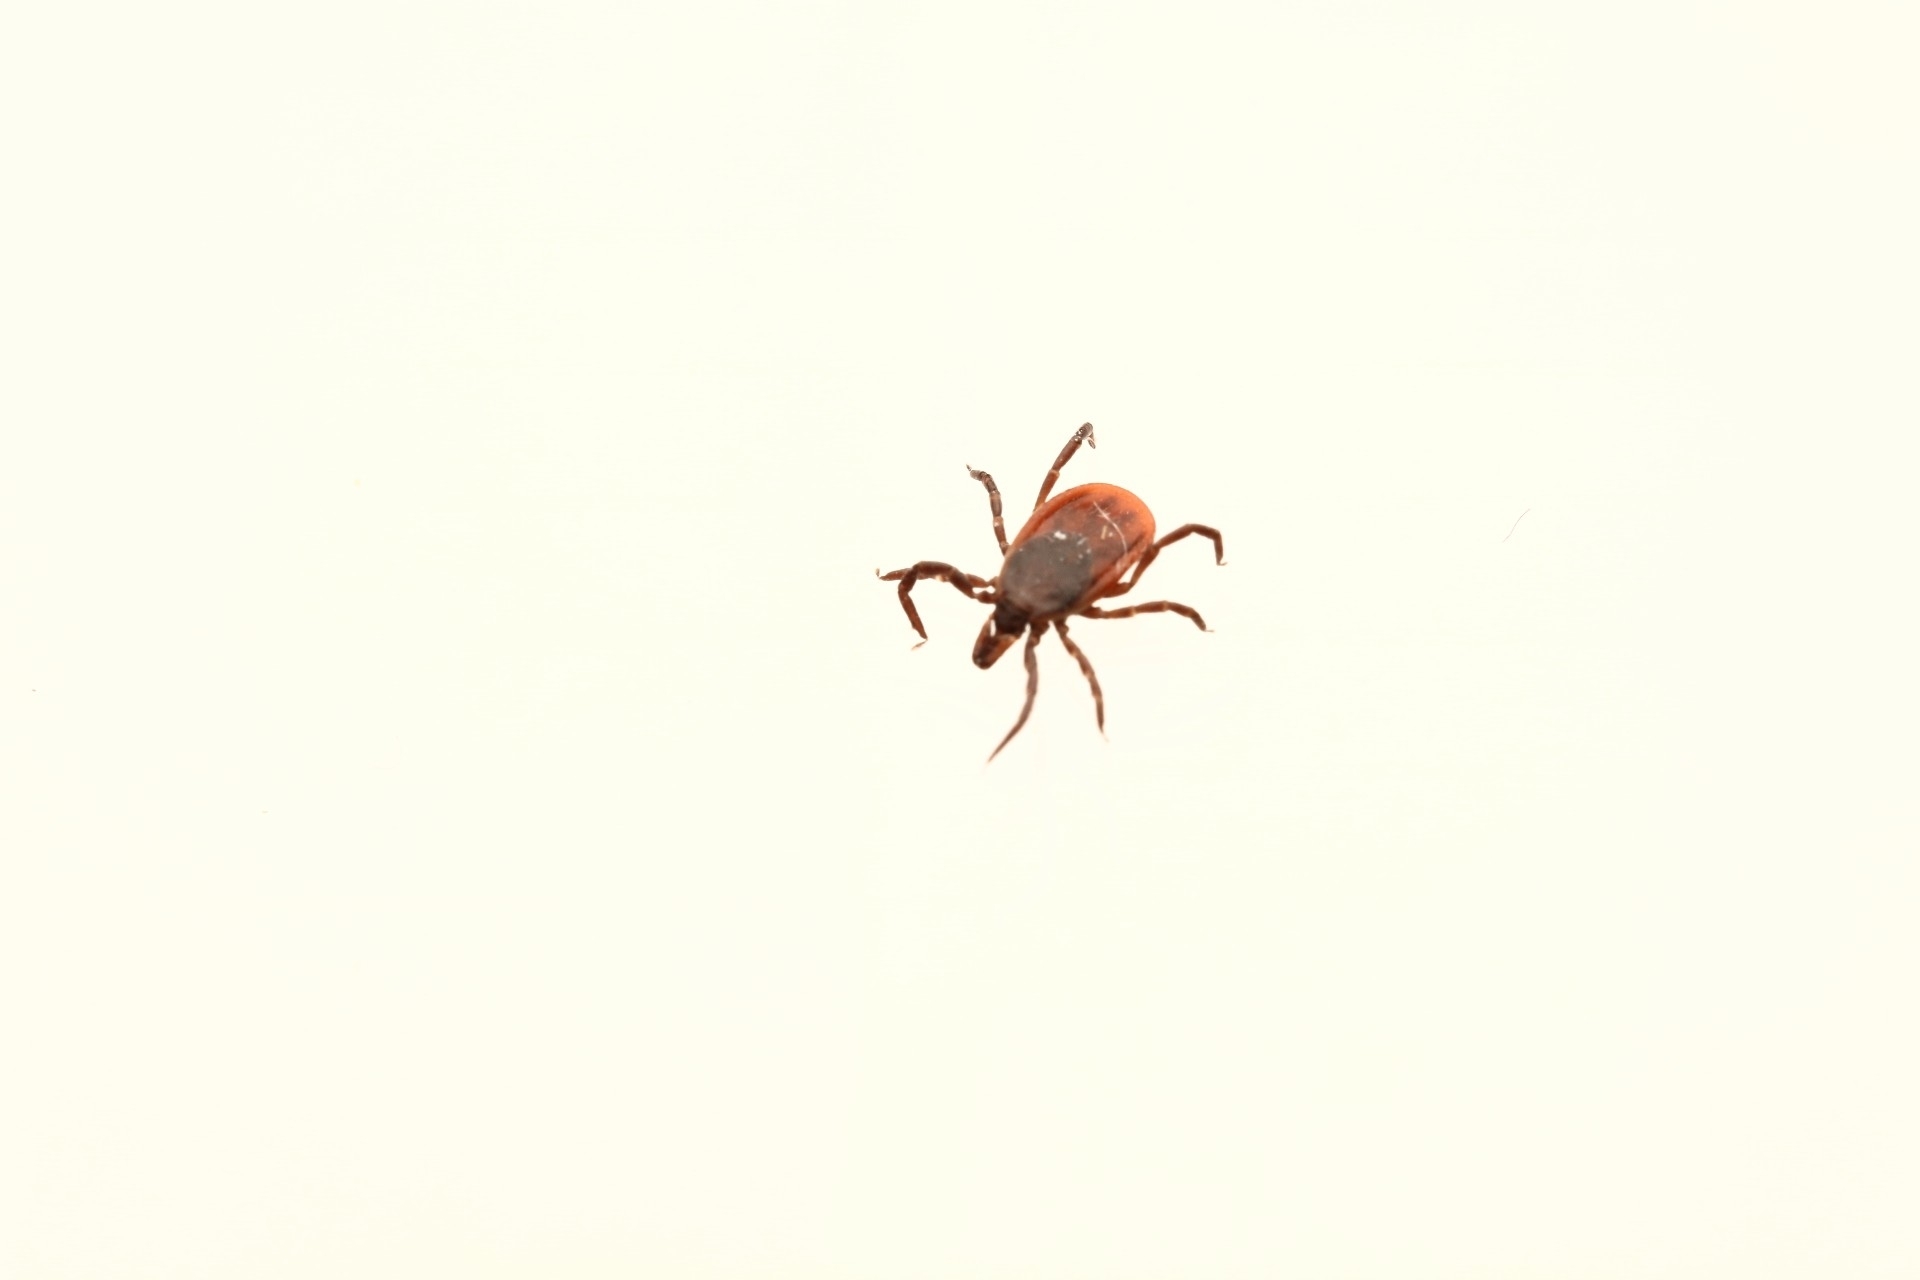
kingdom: Animalia
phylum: Arthropoda
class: Arachnida
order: Ixodida
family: Ixodidae
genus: Ixodes
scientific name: Ixodes scapularis
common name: Black legged tick
